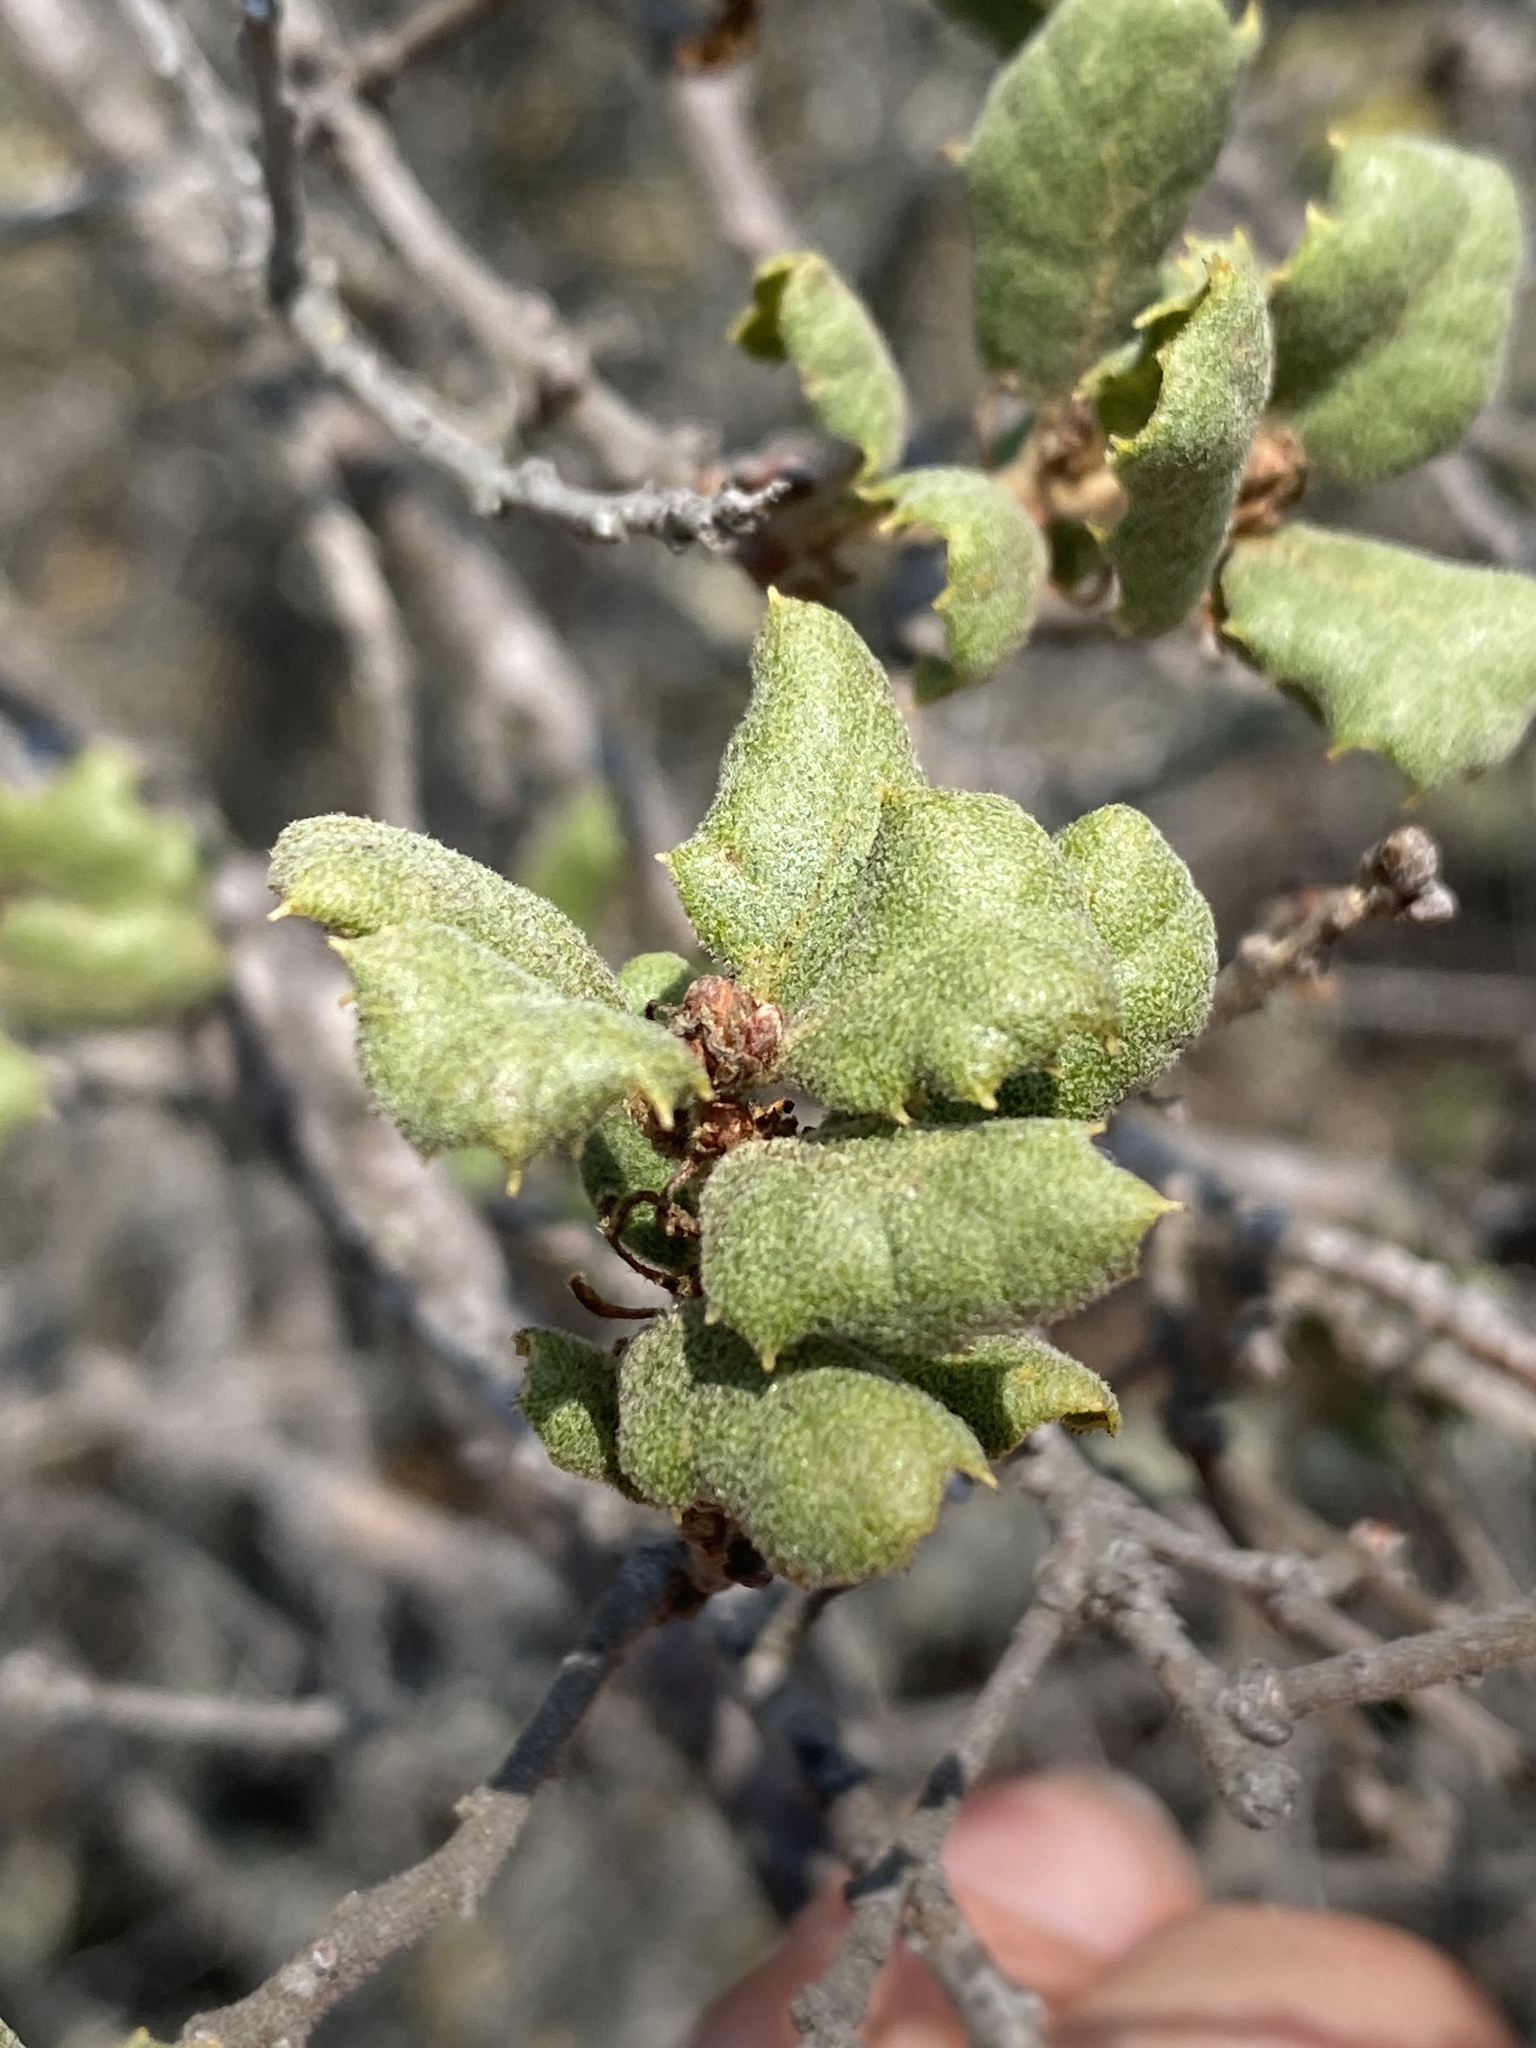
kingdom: Plantae
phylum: Tracheophyta
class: Magnoliopsida
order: Fagales
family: Fagaceae
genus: Quercus
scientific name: Quercus durata
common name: Leather oak
